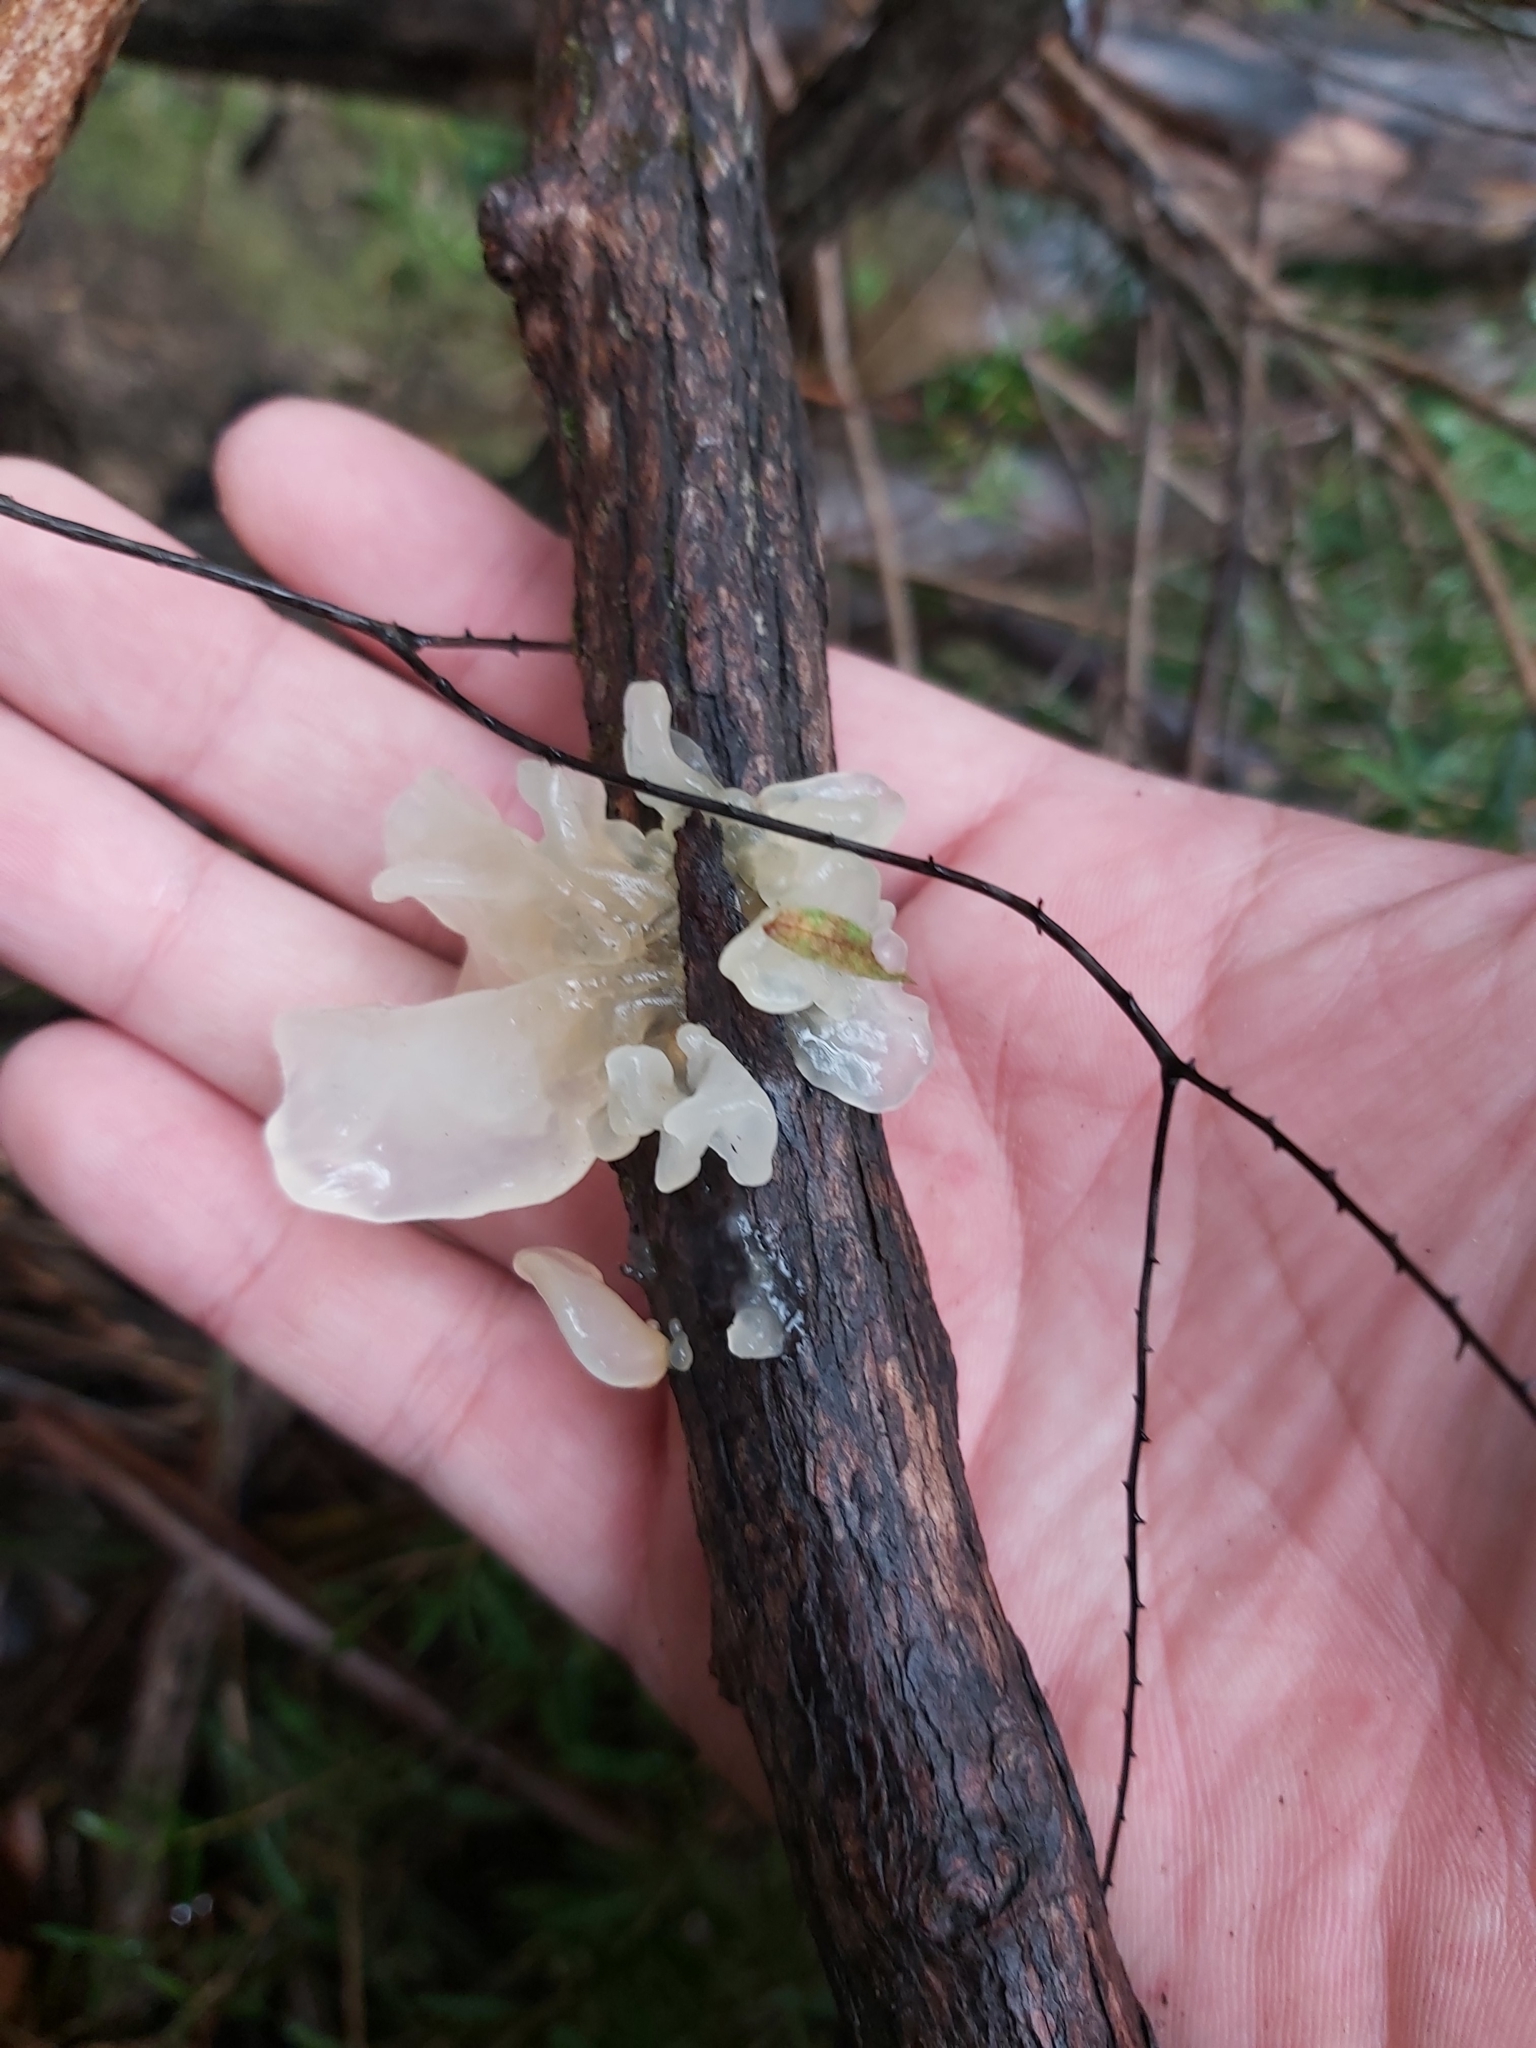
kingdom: Fungi
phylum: Basidiomycota
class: Tremellomycetes
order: Tremellales
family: Tremellaceae
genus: Tremella
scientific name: Tremella fuciformis
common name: Snow fungus
